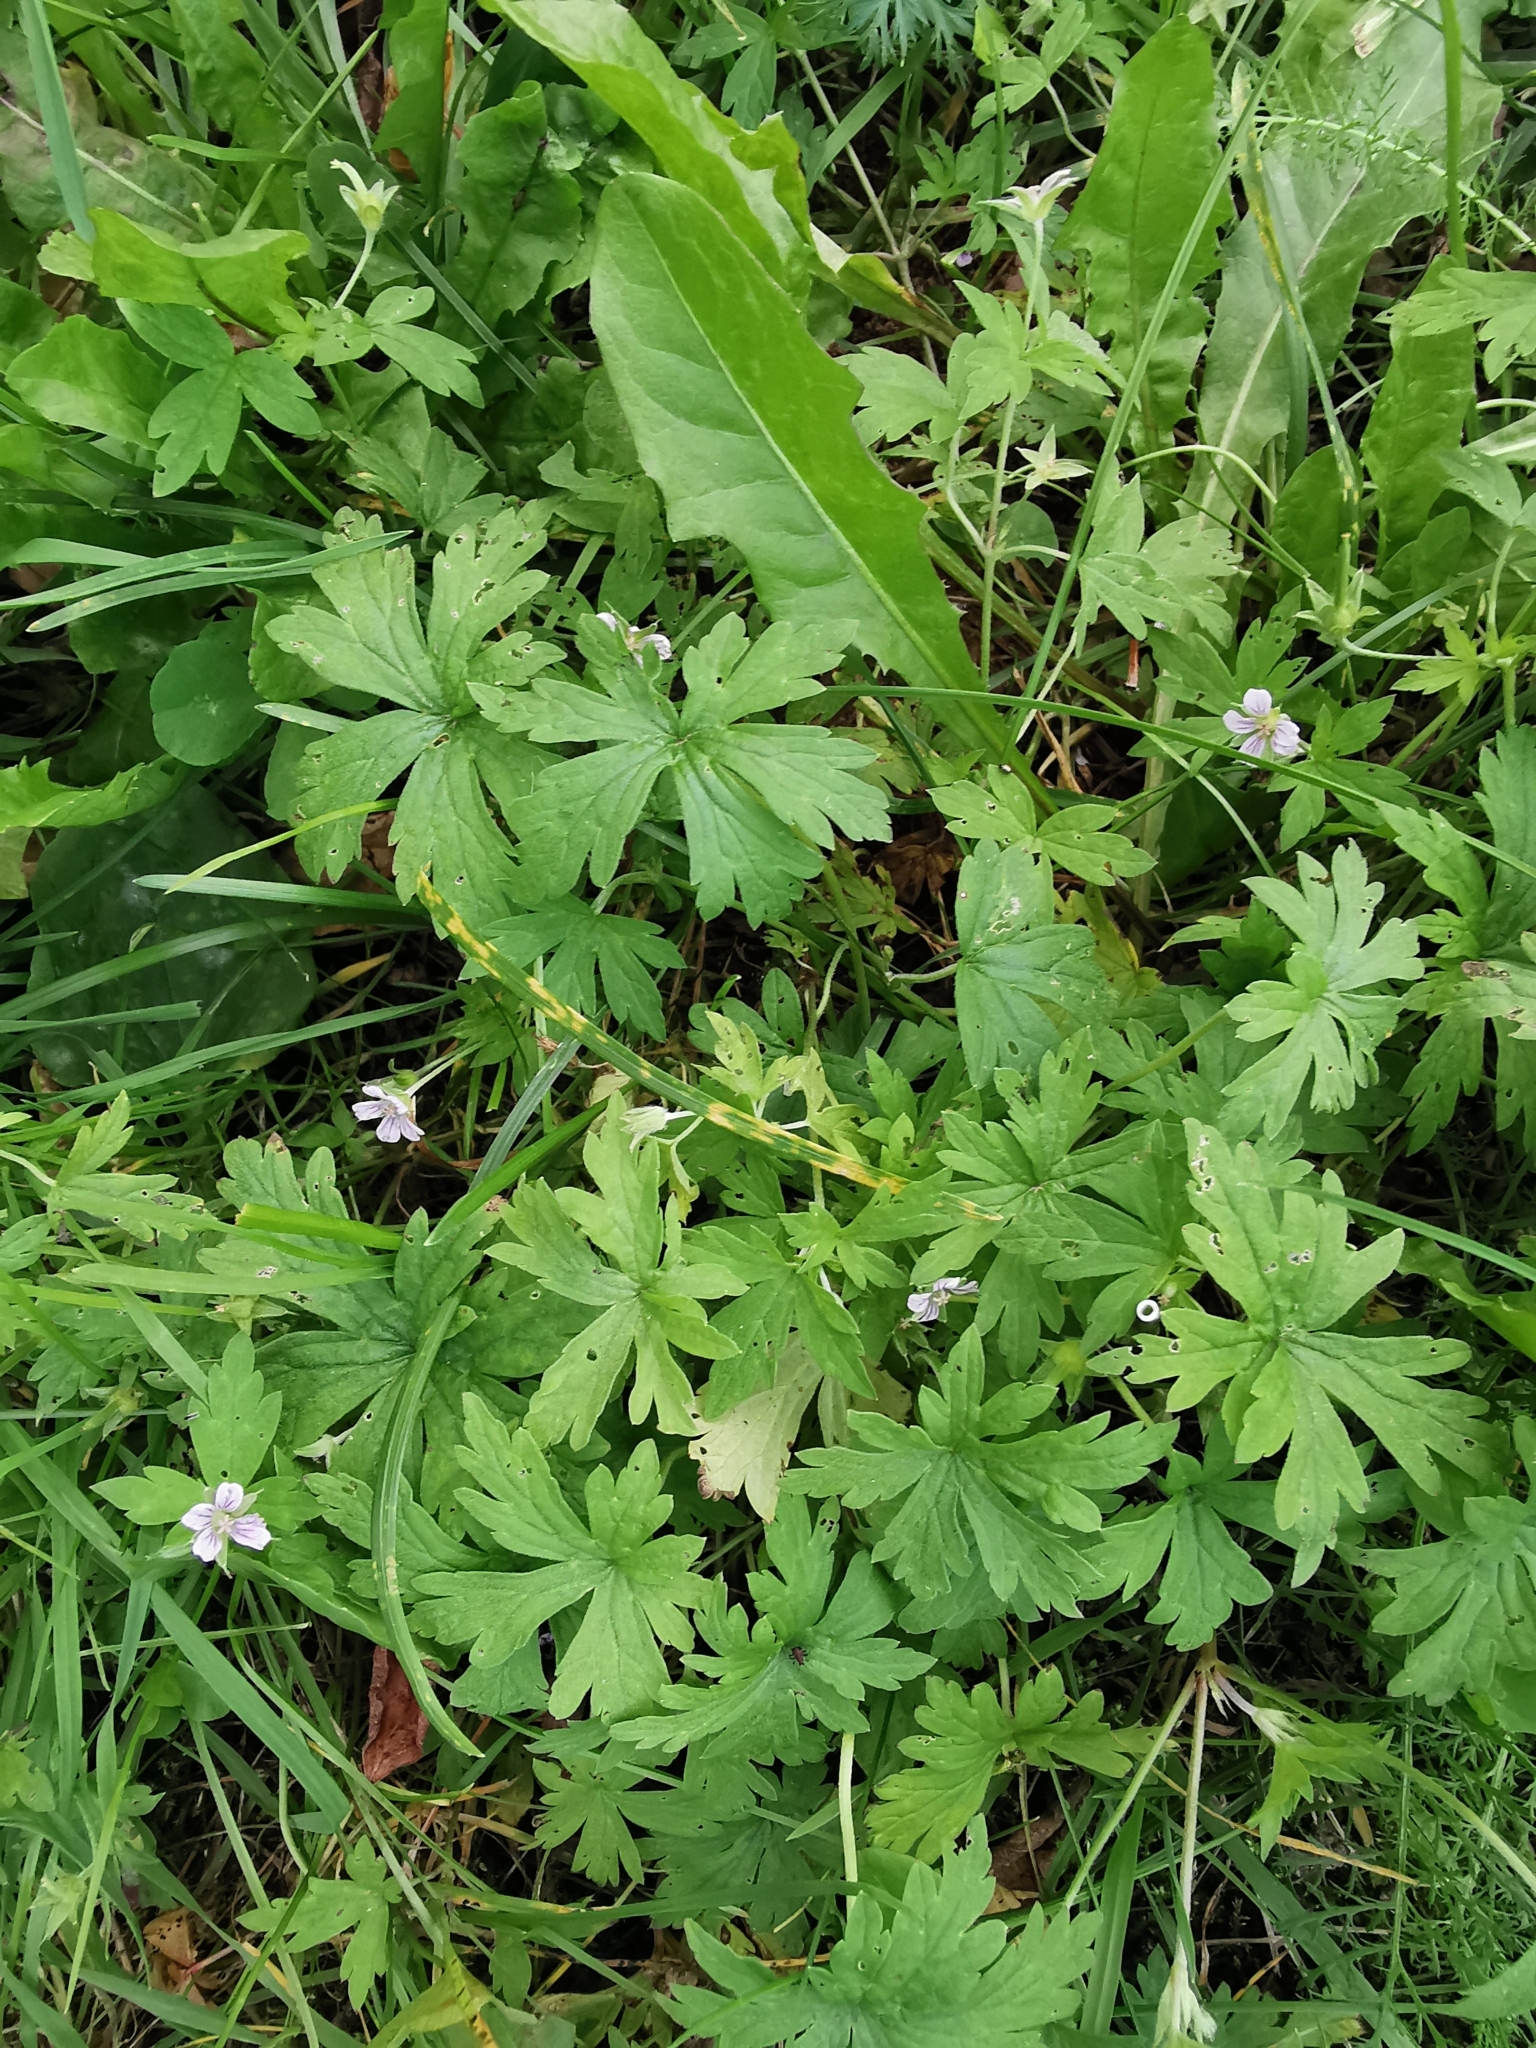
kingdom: Plantae
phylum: Tracheophyta
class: Magnoliopsida
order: Geraniales
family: Geraniaceae
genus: Geranium
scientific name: Geranium sibiricum
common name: Siberian crane's-bill
